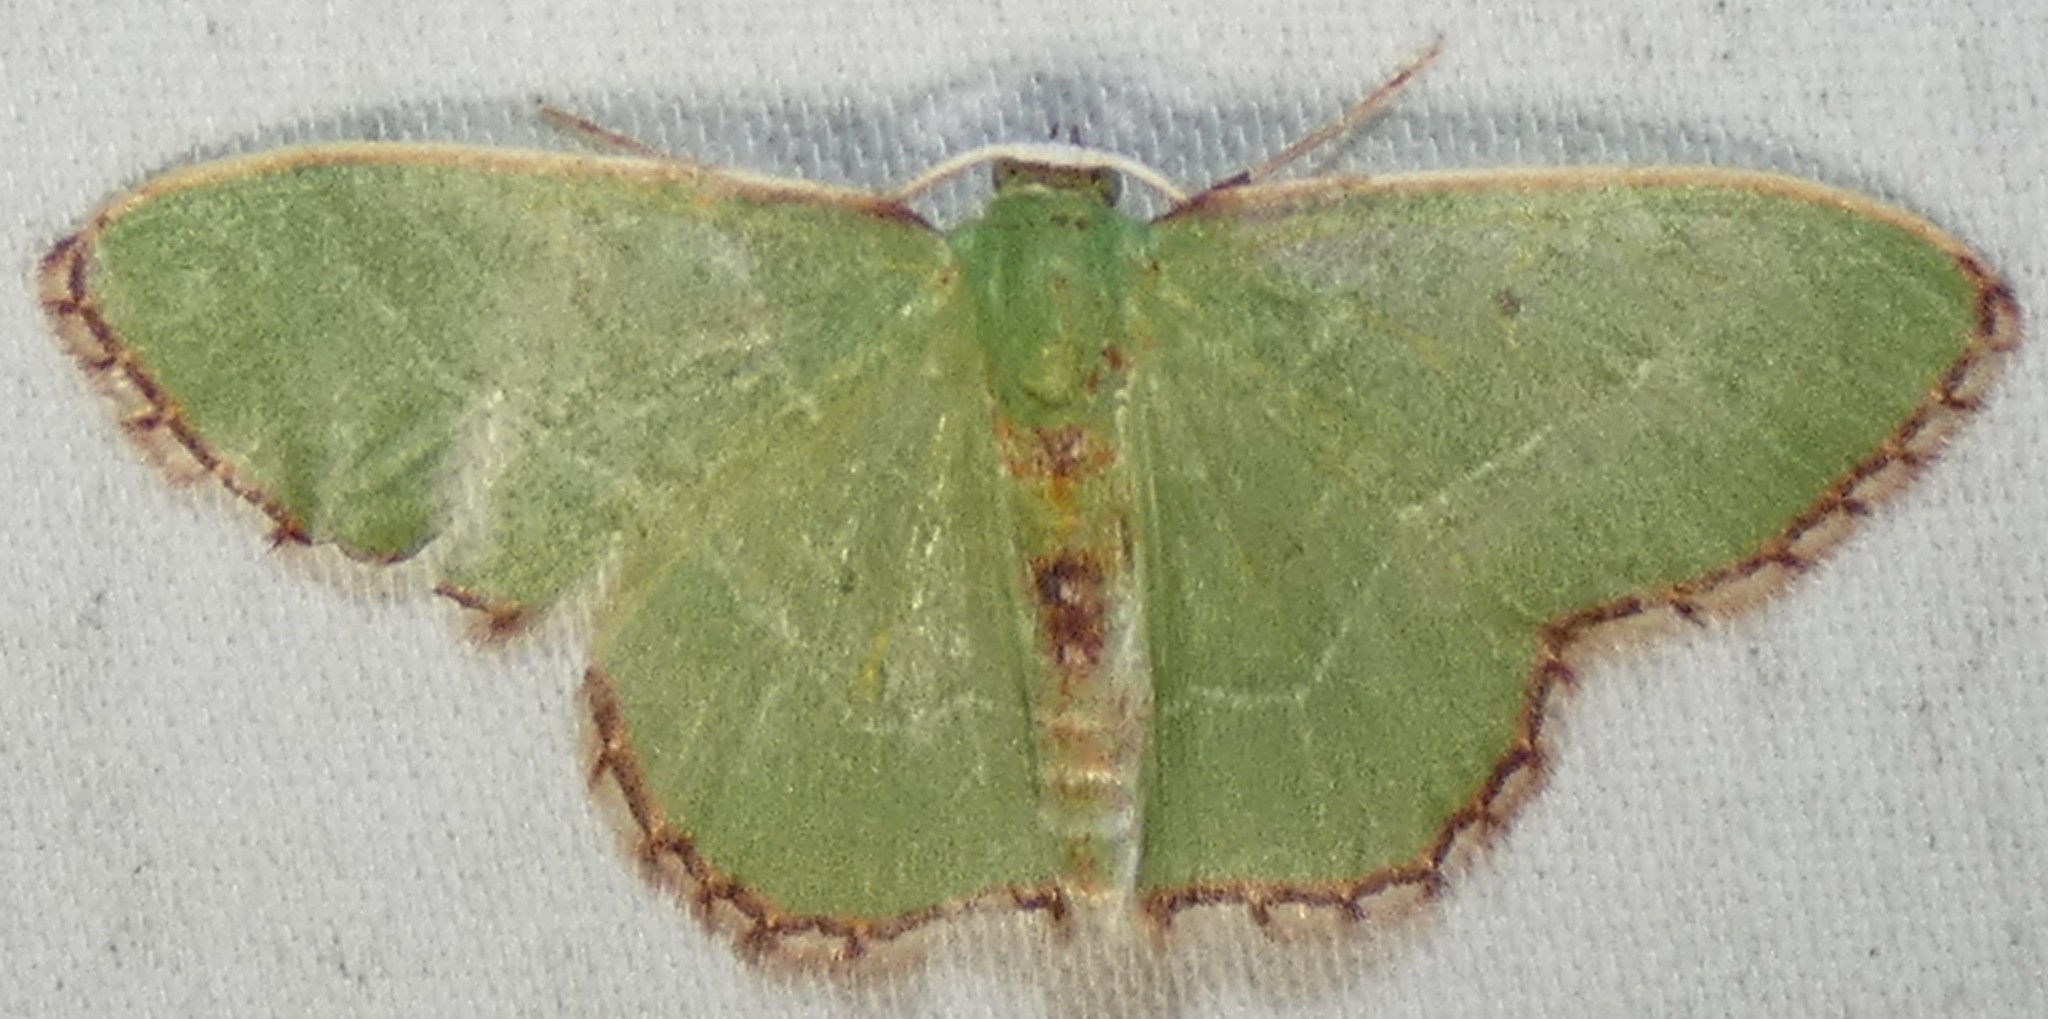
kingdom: Animalia
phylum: Arthropoda
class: Insecta
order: Lepidoptera
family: Geometridae
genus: Nemoria
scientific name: Nemoria saturiba
